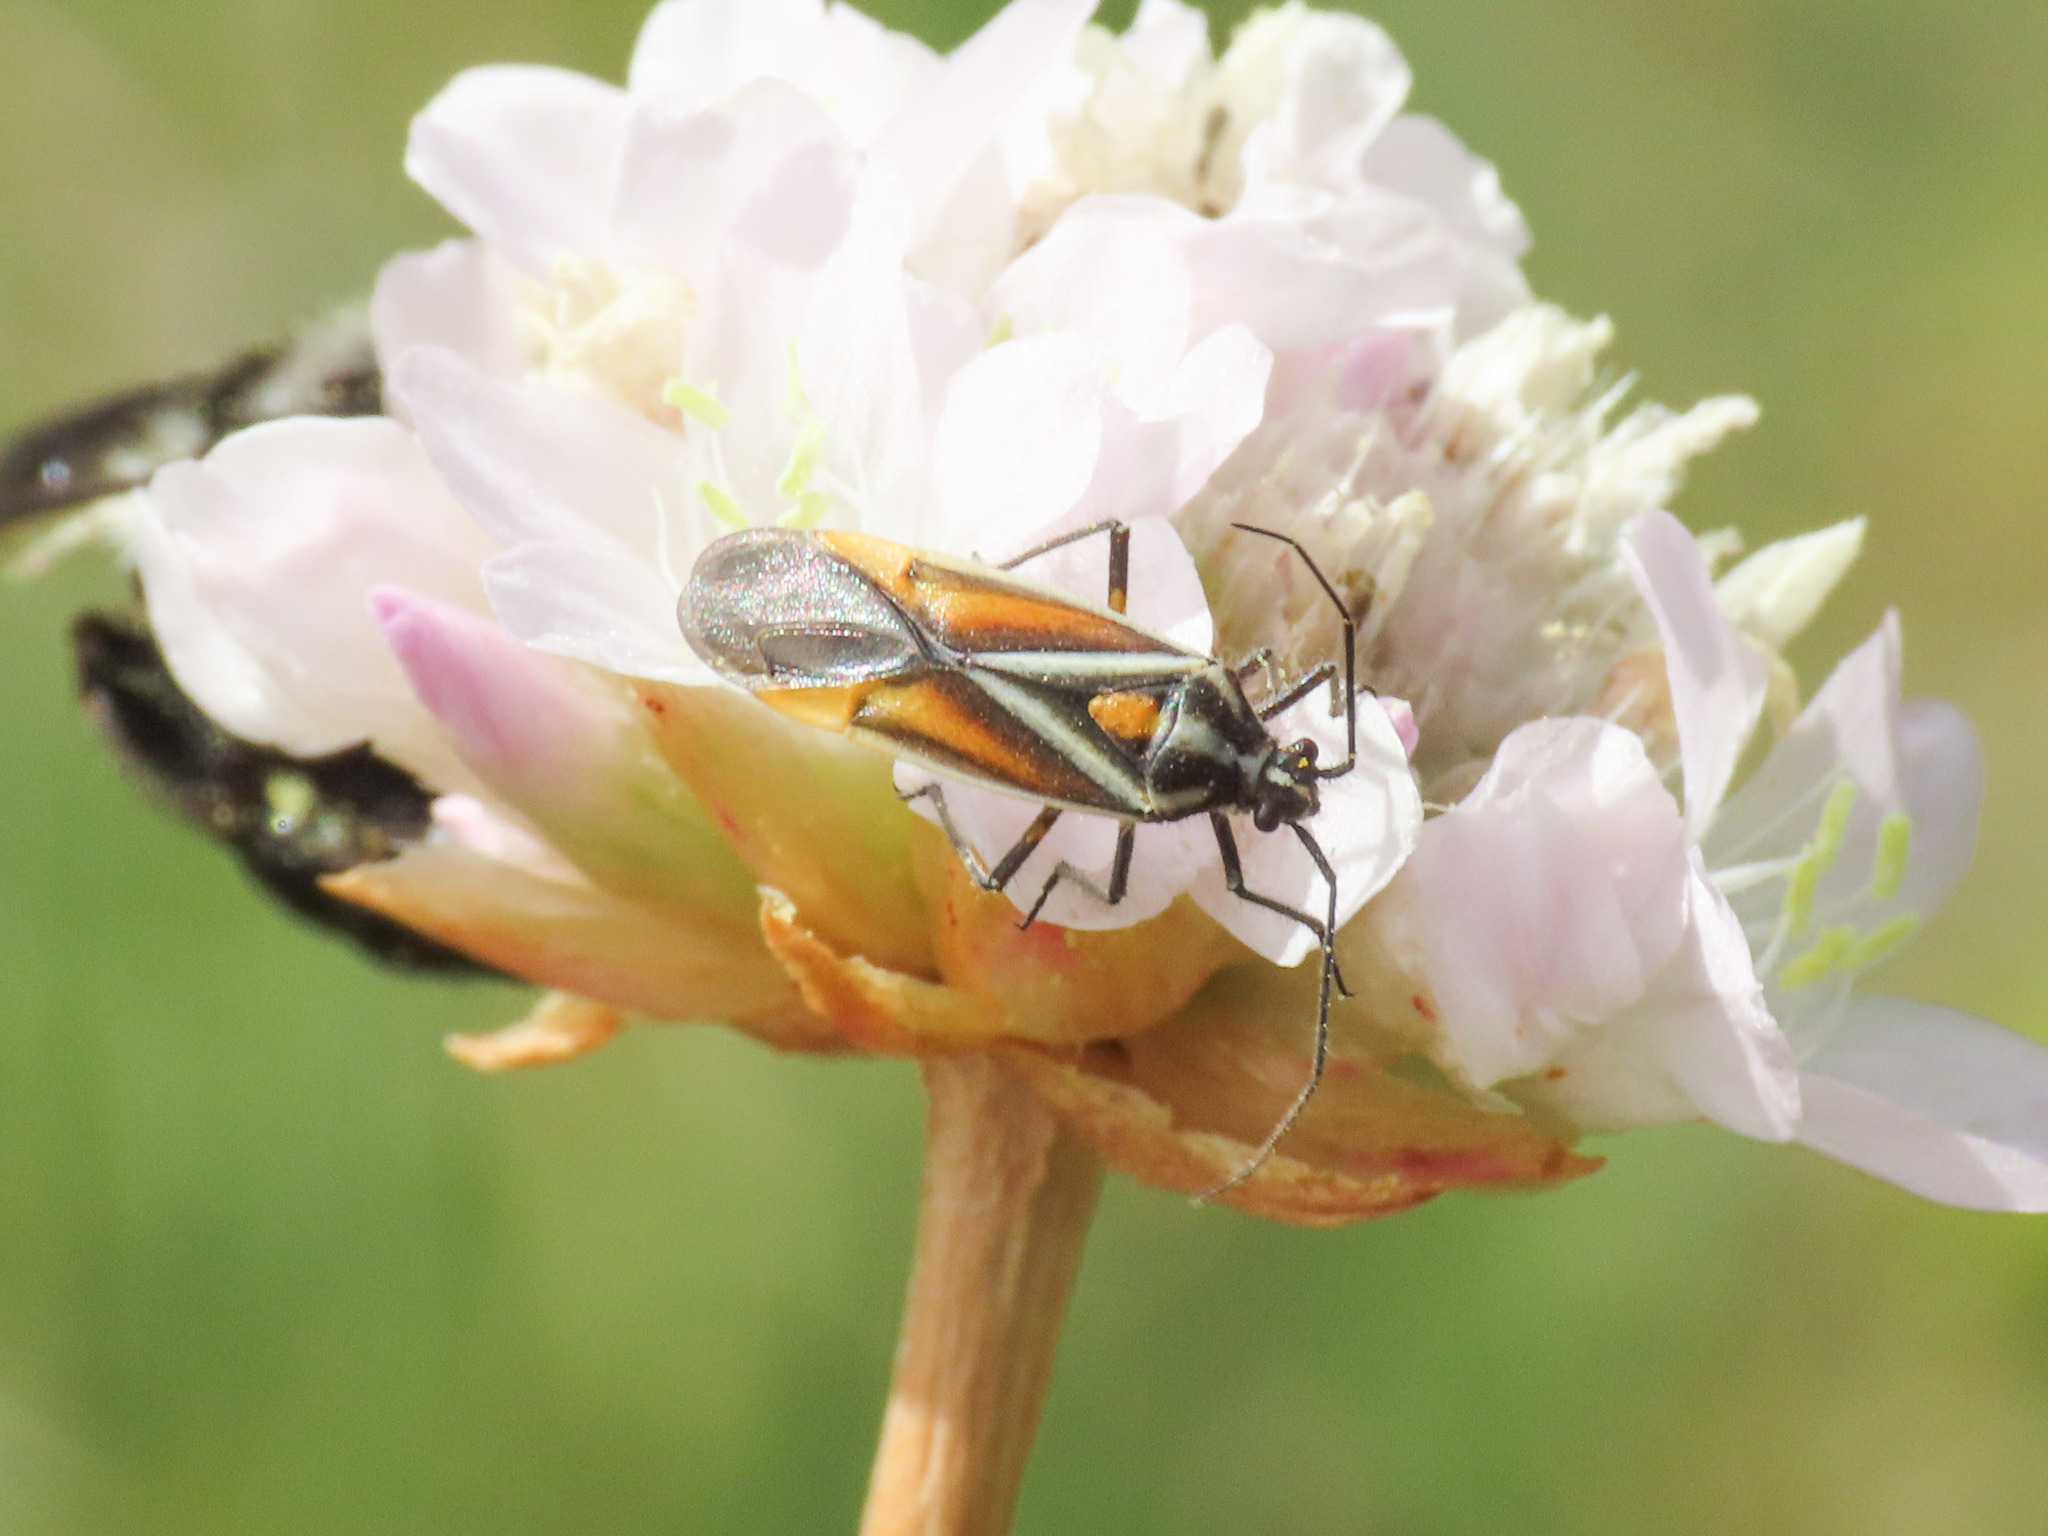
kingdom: Animalia
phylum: Arthropoda
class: Insecta
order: Hemiptera
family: Miridae
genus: Horistus
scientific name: Horistus elongatus
